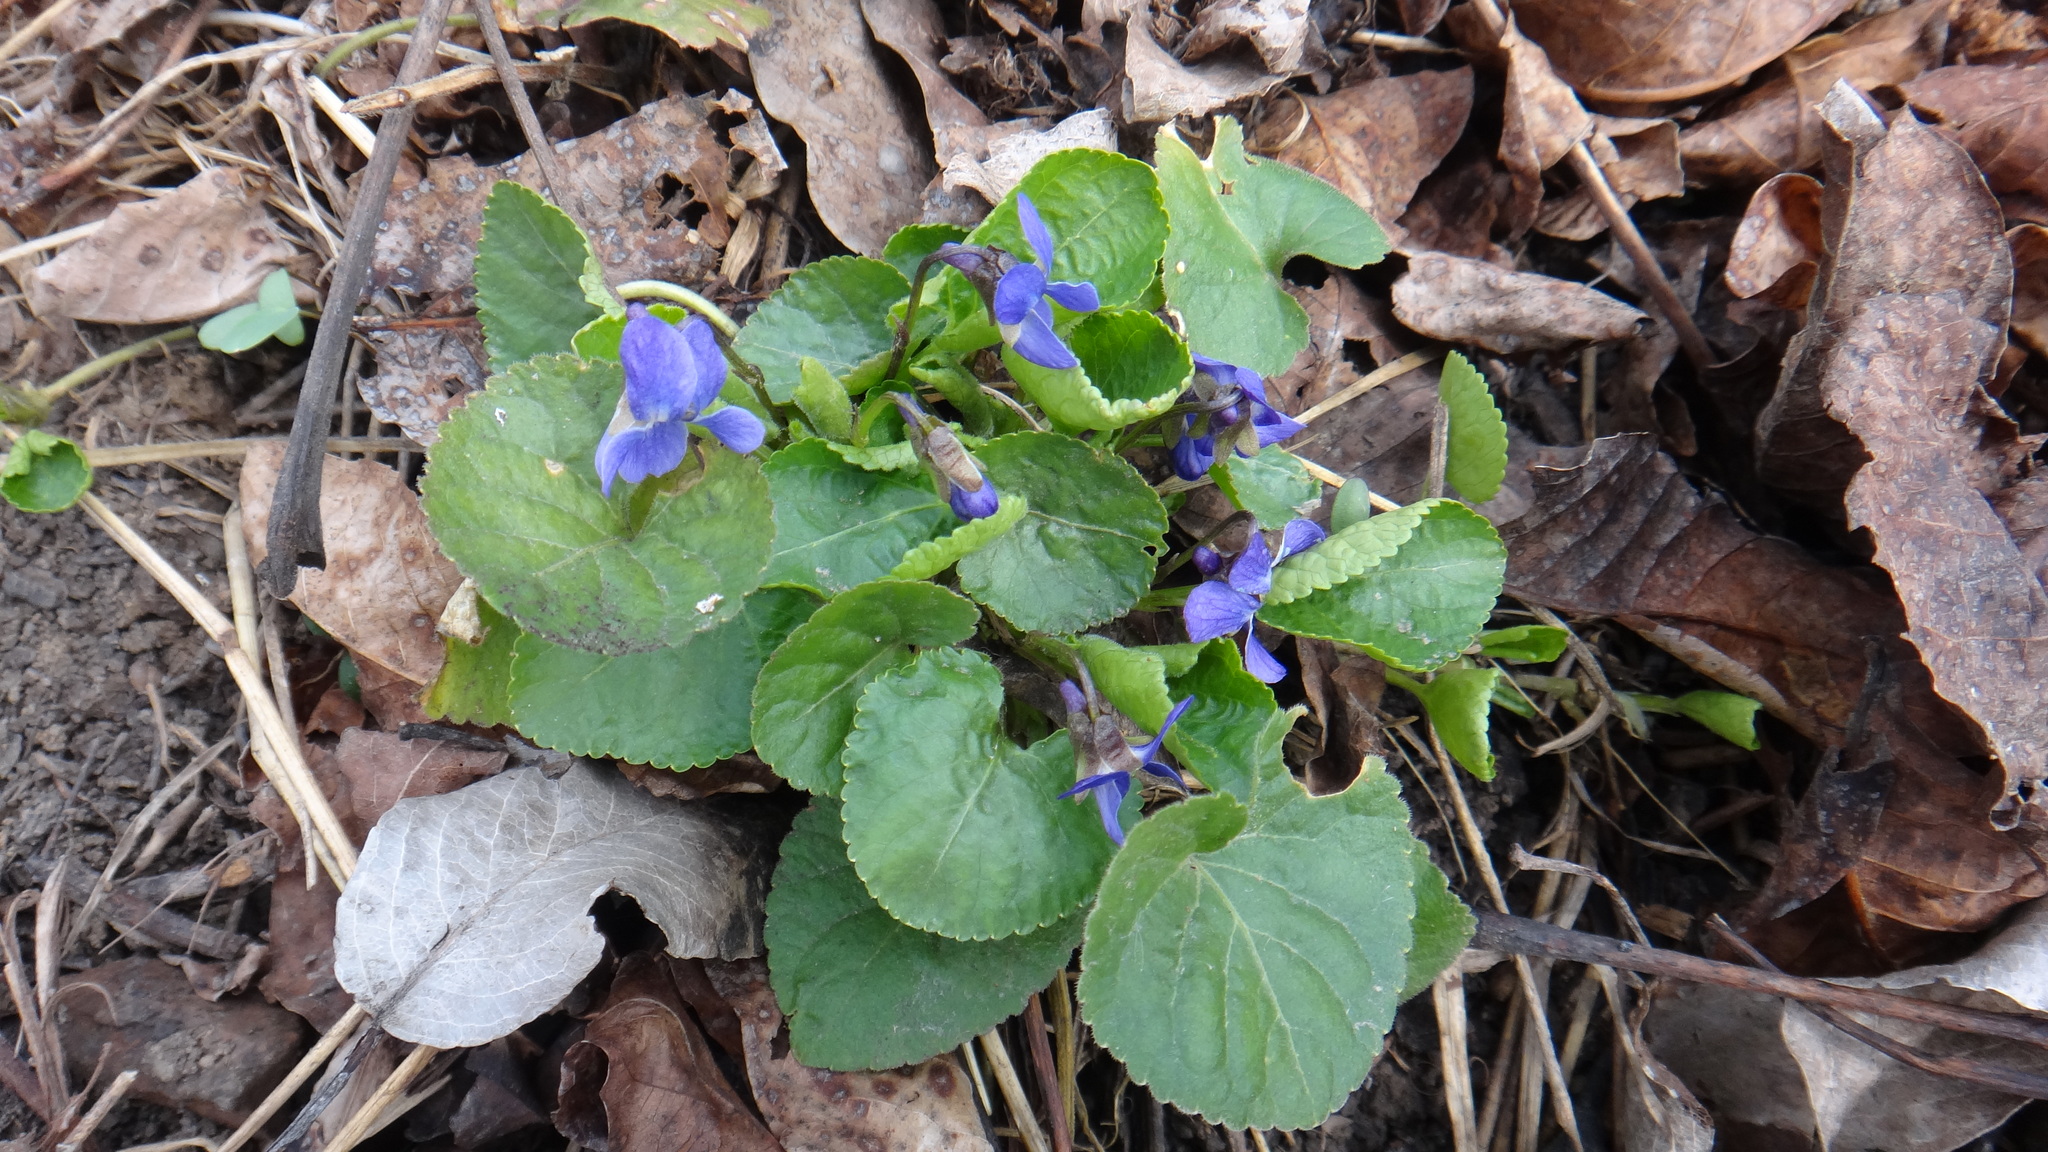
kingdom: Plantae
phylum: Tracheophyta
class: Magnoliopsida
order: Malpighiales
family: Violaceae
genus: Viola
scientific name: Viola odorata
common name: Sweet violet
